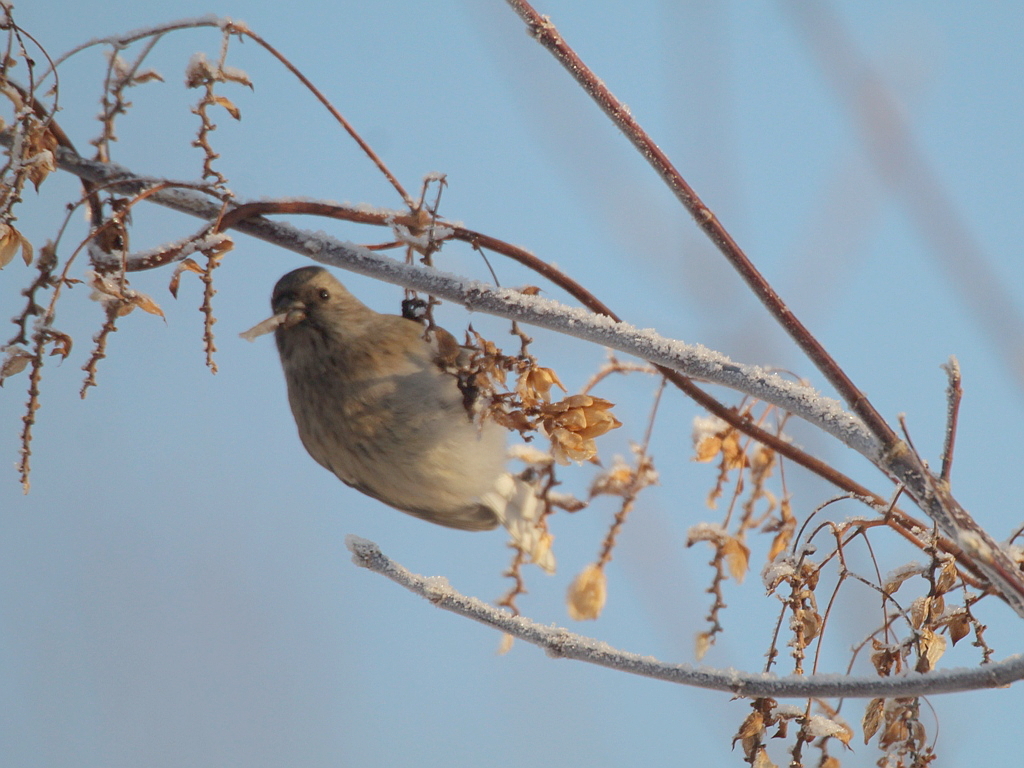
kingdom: Animalia
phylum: Chordata
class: Aves
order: Passeriformes
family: Fringillidae
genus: Carpodacus
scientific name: Carpodacus sibiricus
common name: Long-tailed rosefinch
